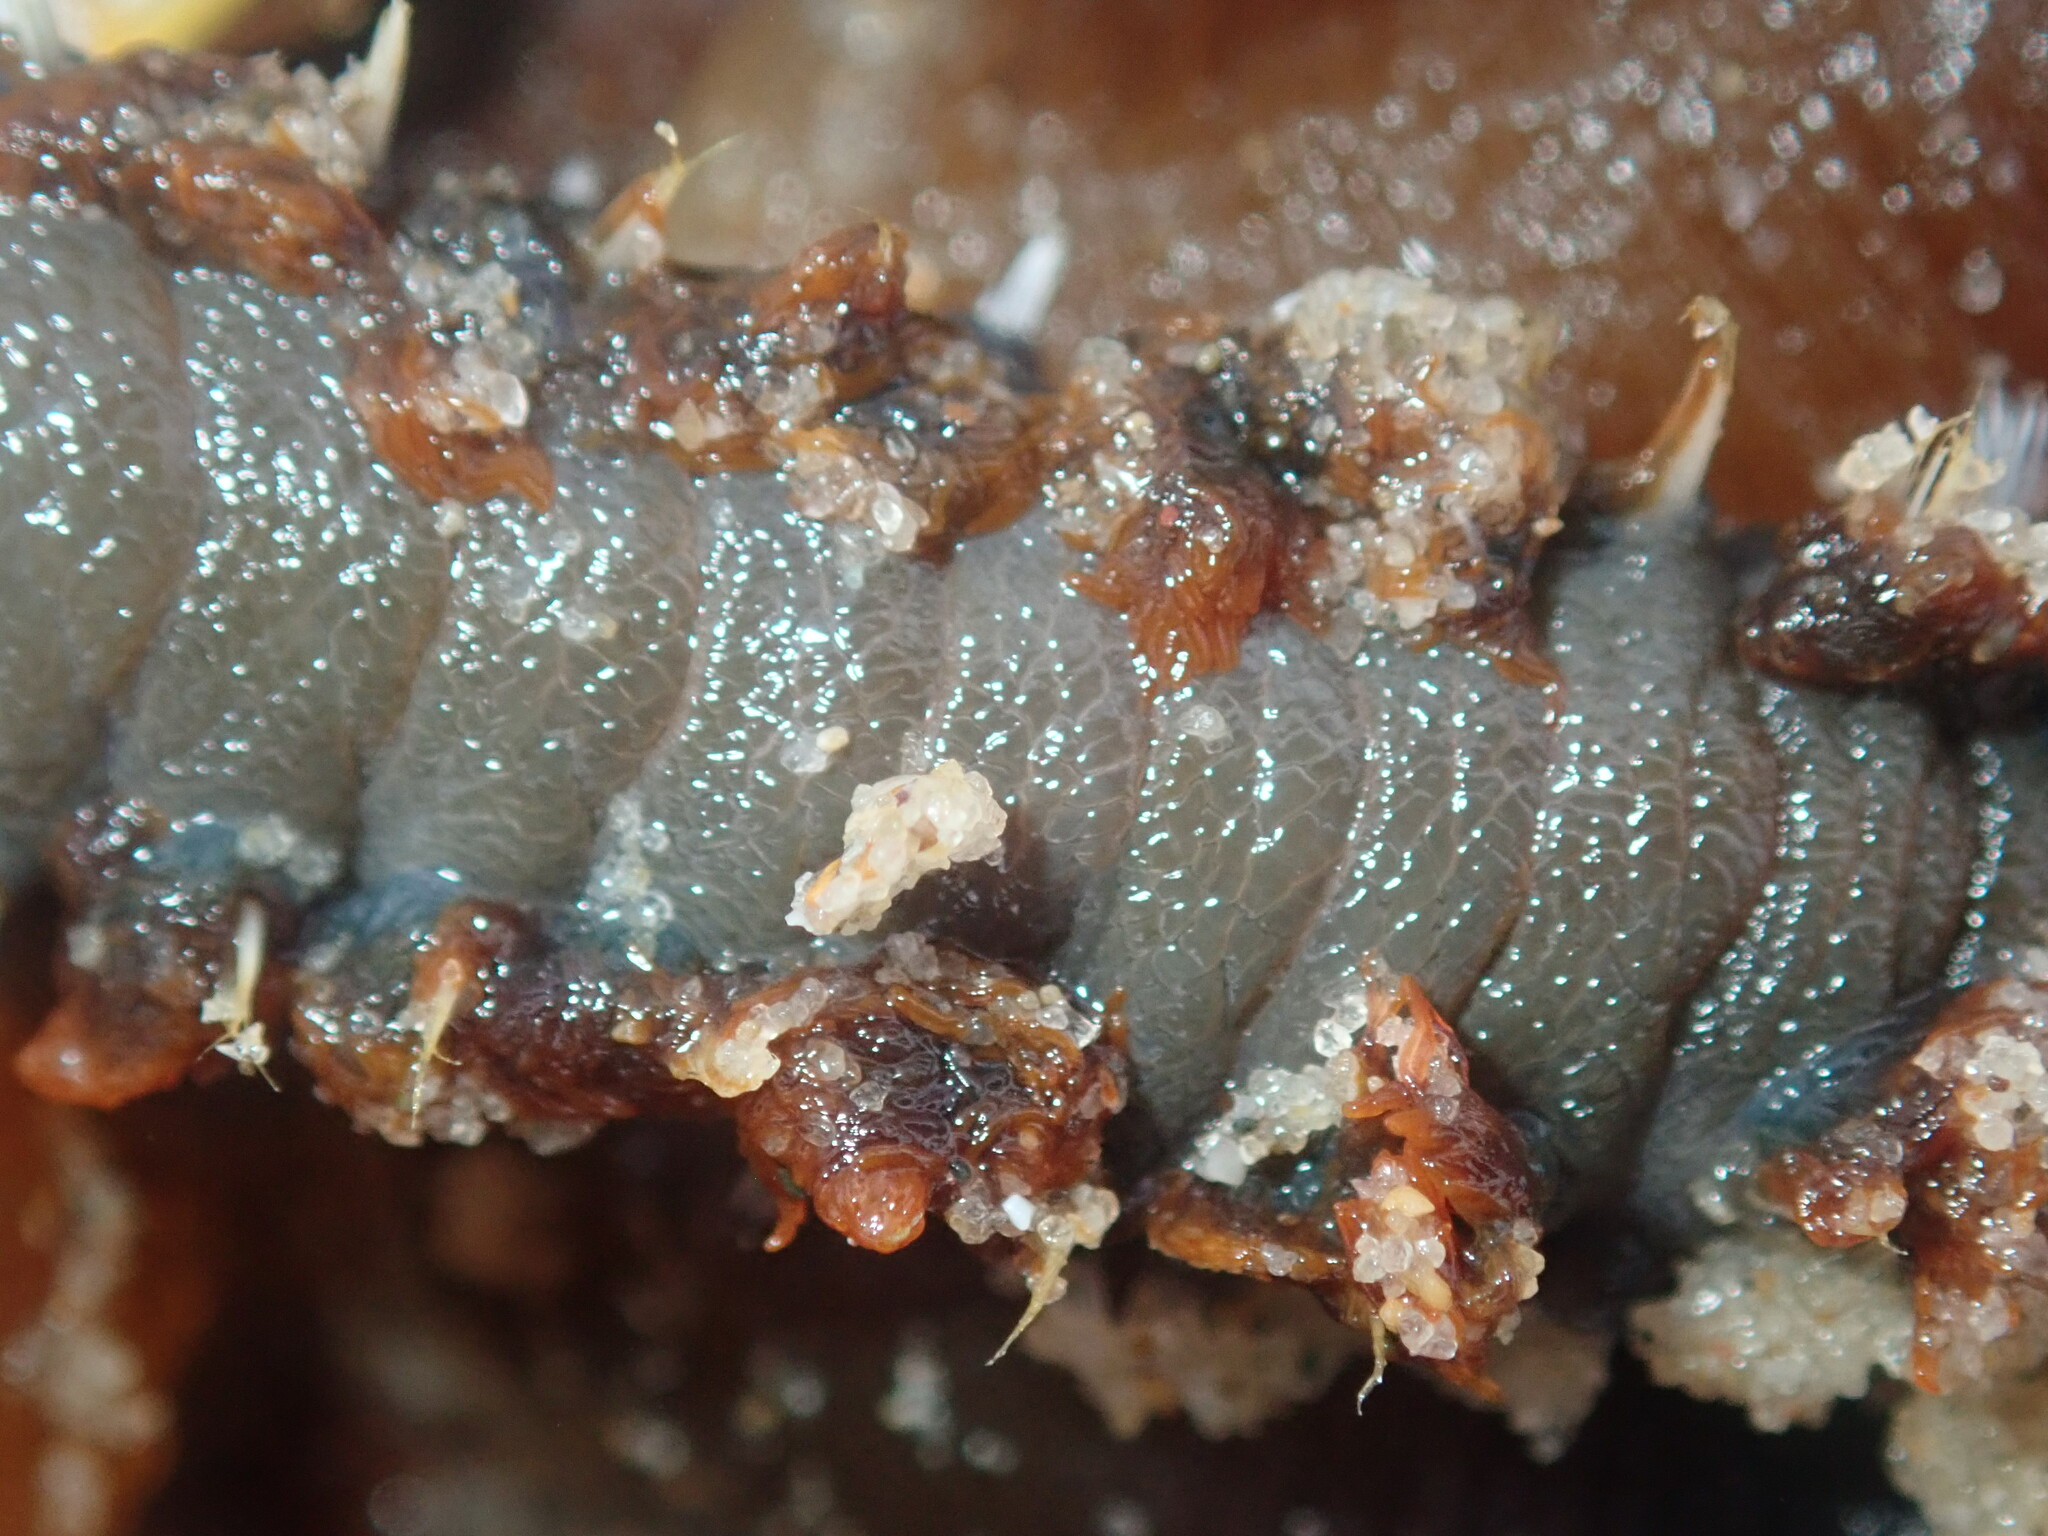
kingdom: Animalia
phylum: Annelida
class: Polychaeta
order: Amphinomida
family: Amphinomidae
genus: Amphinome
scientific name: Amphinome rostrata
